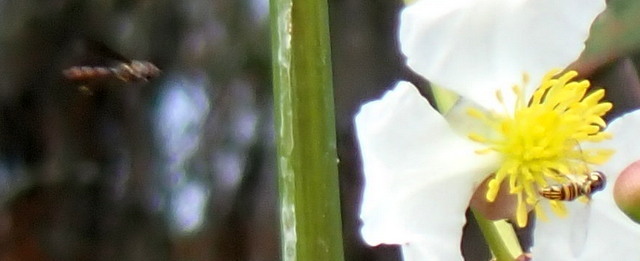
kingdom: Animalia
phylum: Arthropoda
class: Insecta
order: Diptera
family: Syrphidae
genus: Allograpta
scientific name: Allograpta obliqua
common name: Common oblique syrphid
